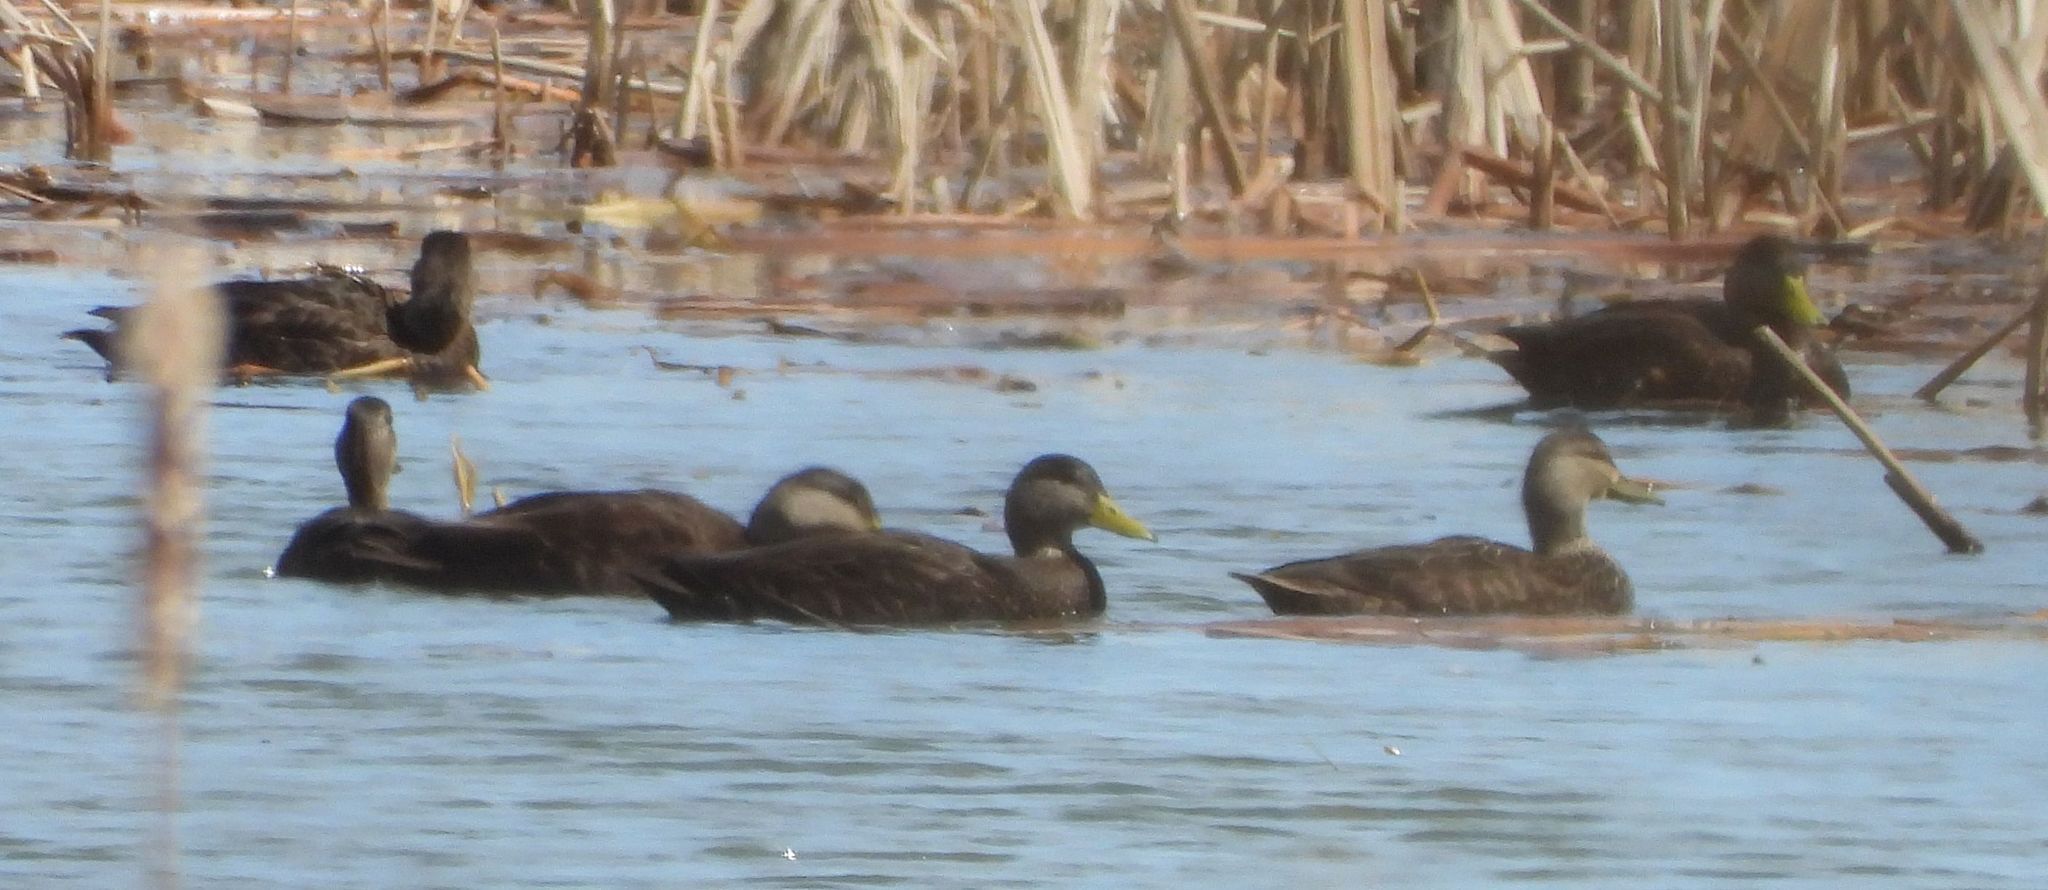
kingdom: Animalia
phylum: Chordata
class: Aves
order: Anseriformes
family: Anatidae
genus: Anas
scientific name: Anas
